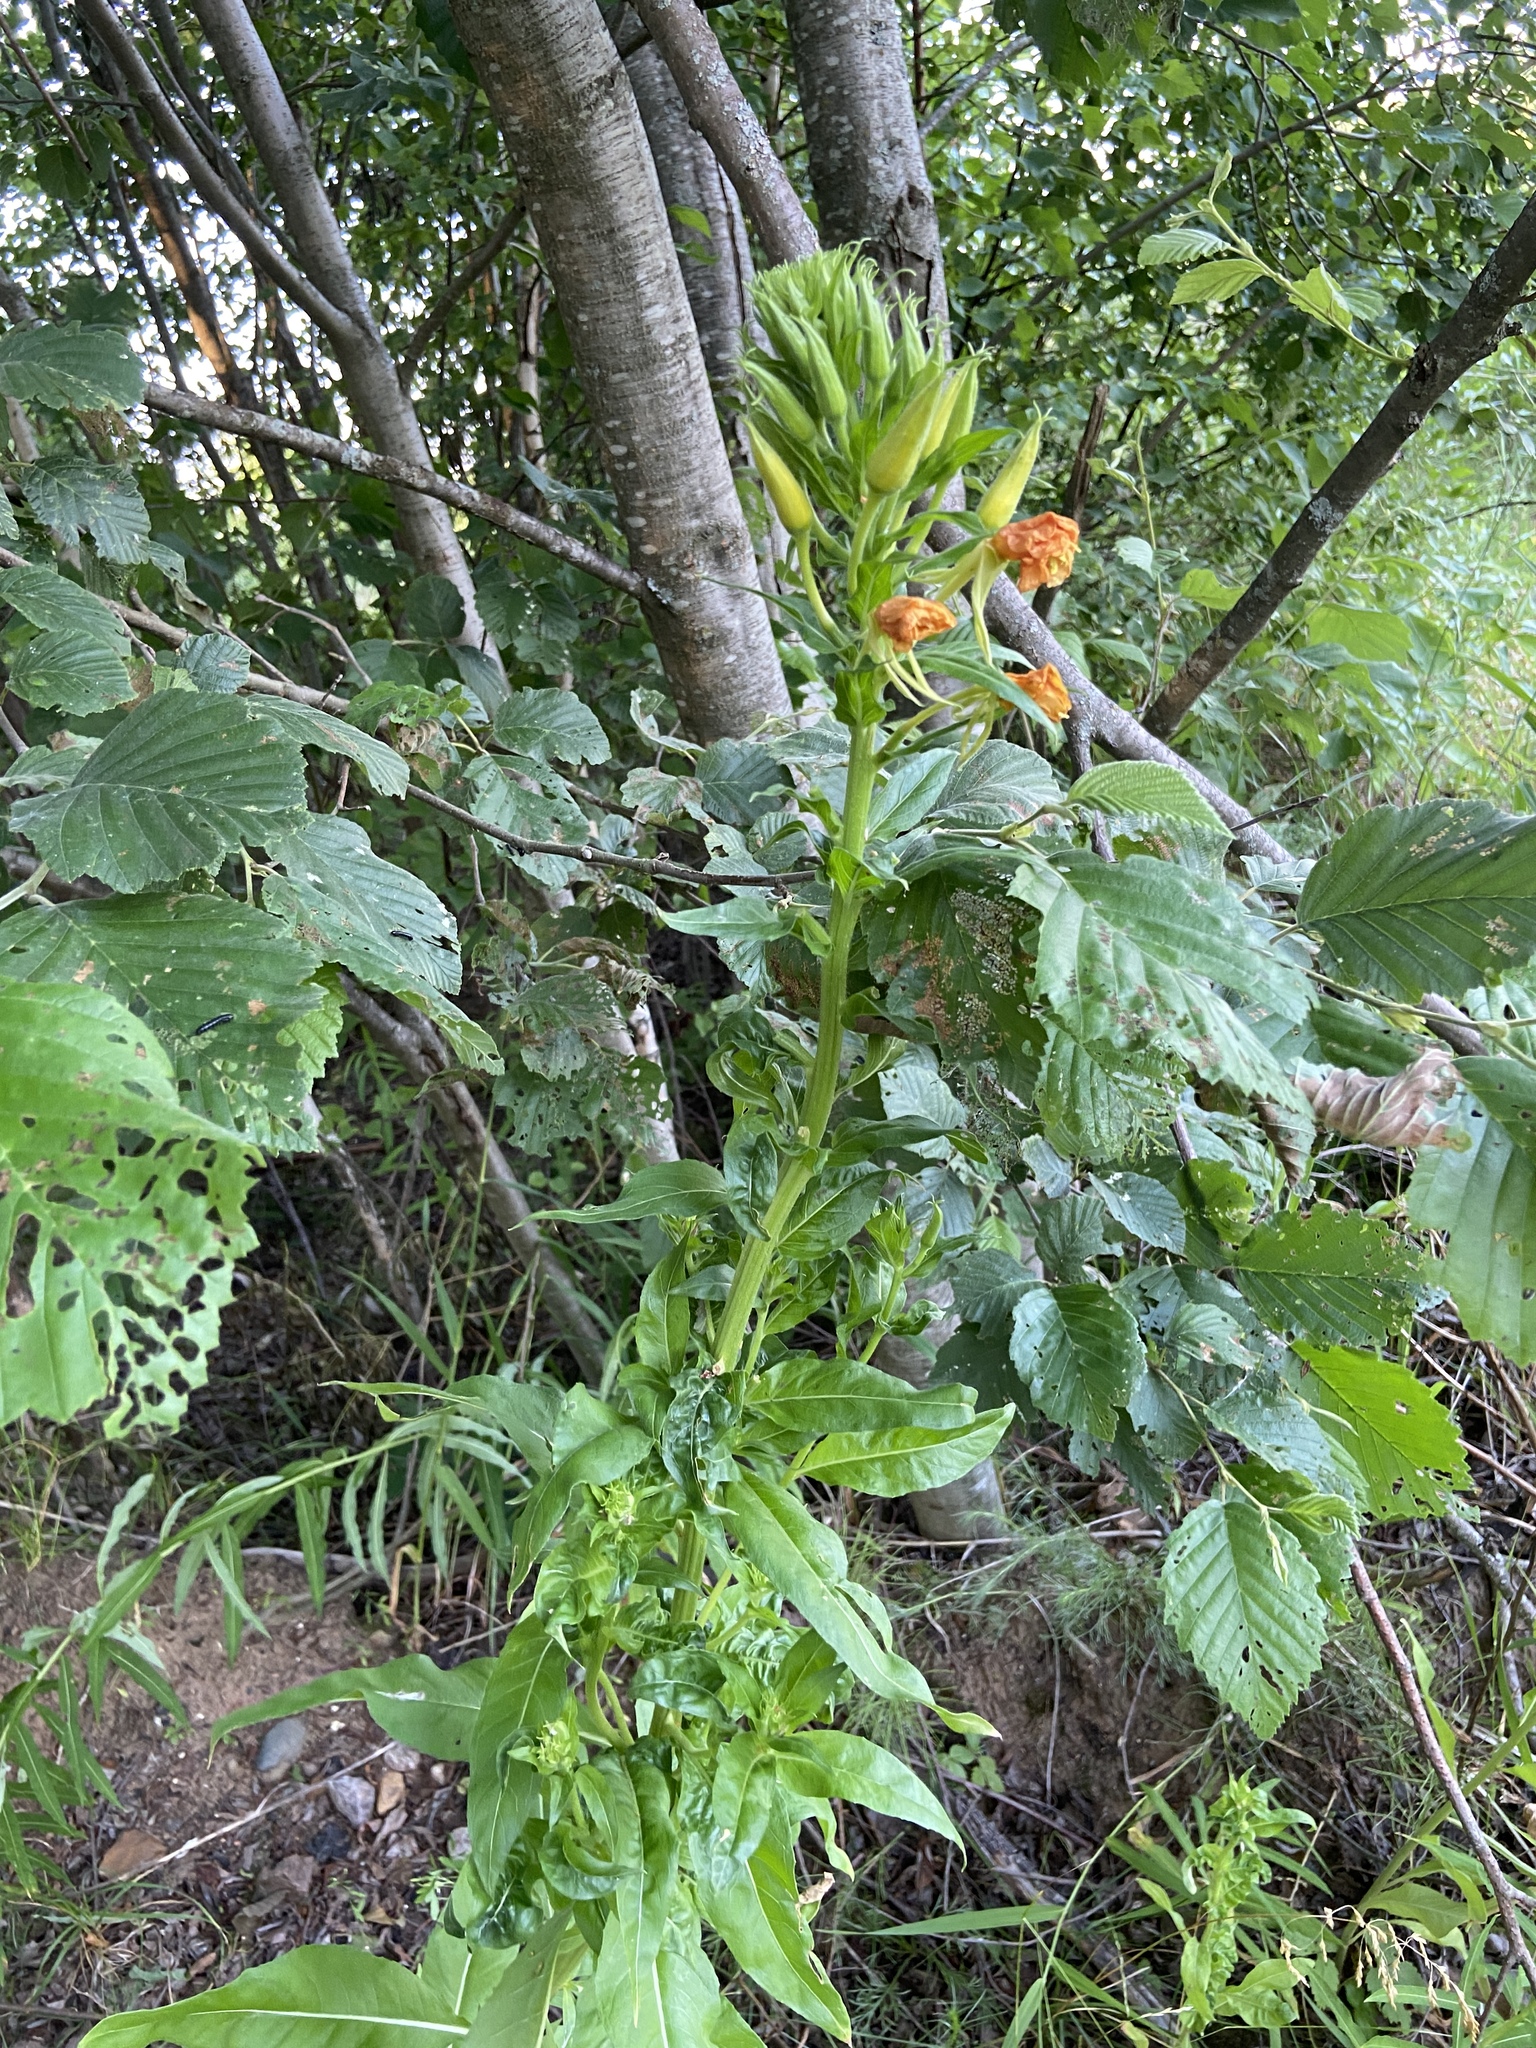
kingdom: Plantae
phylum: Tracheophyta
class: Magnoliopsida
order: Myrtales
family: Onagraceae
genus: Oenothera
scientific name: Oenothera biennis
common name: Common evening-primrose
